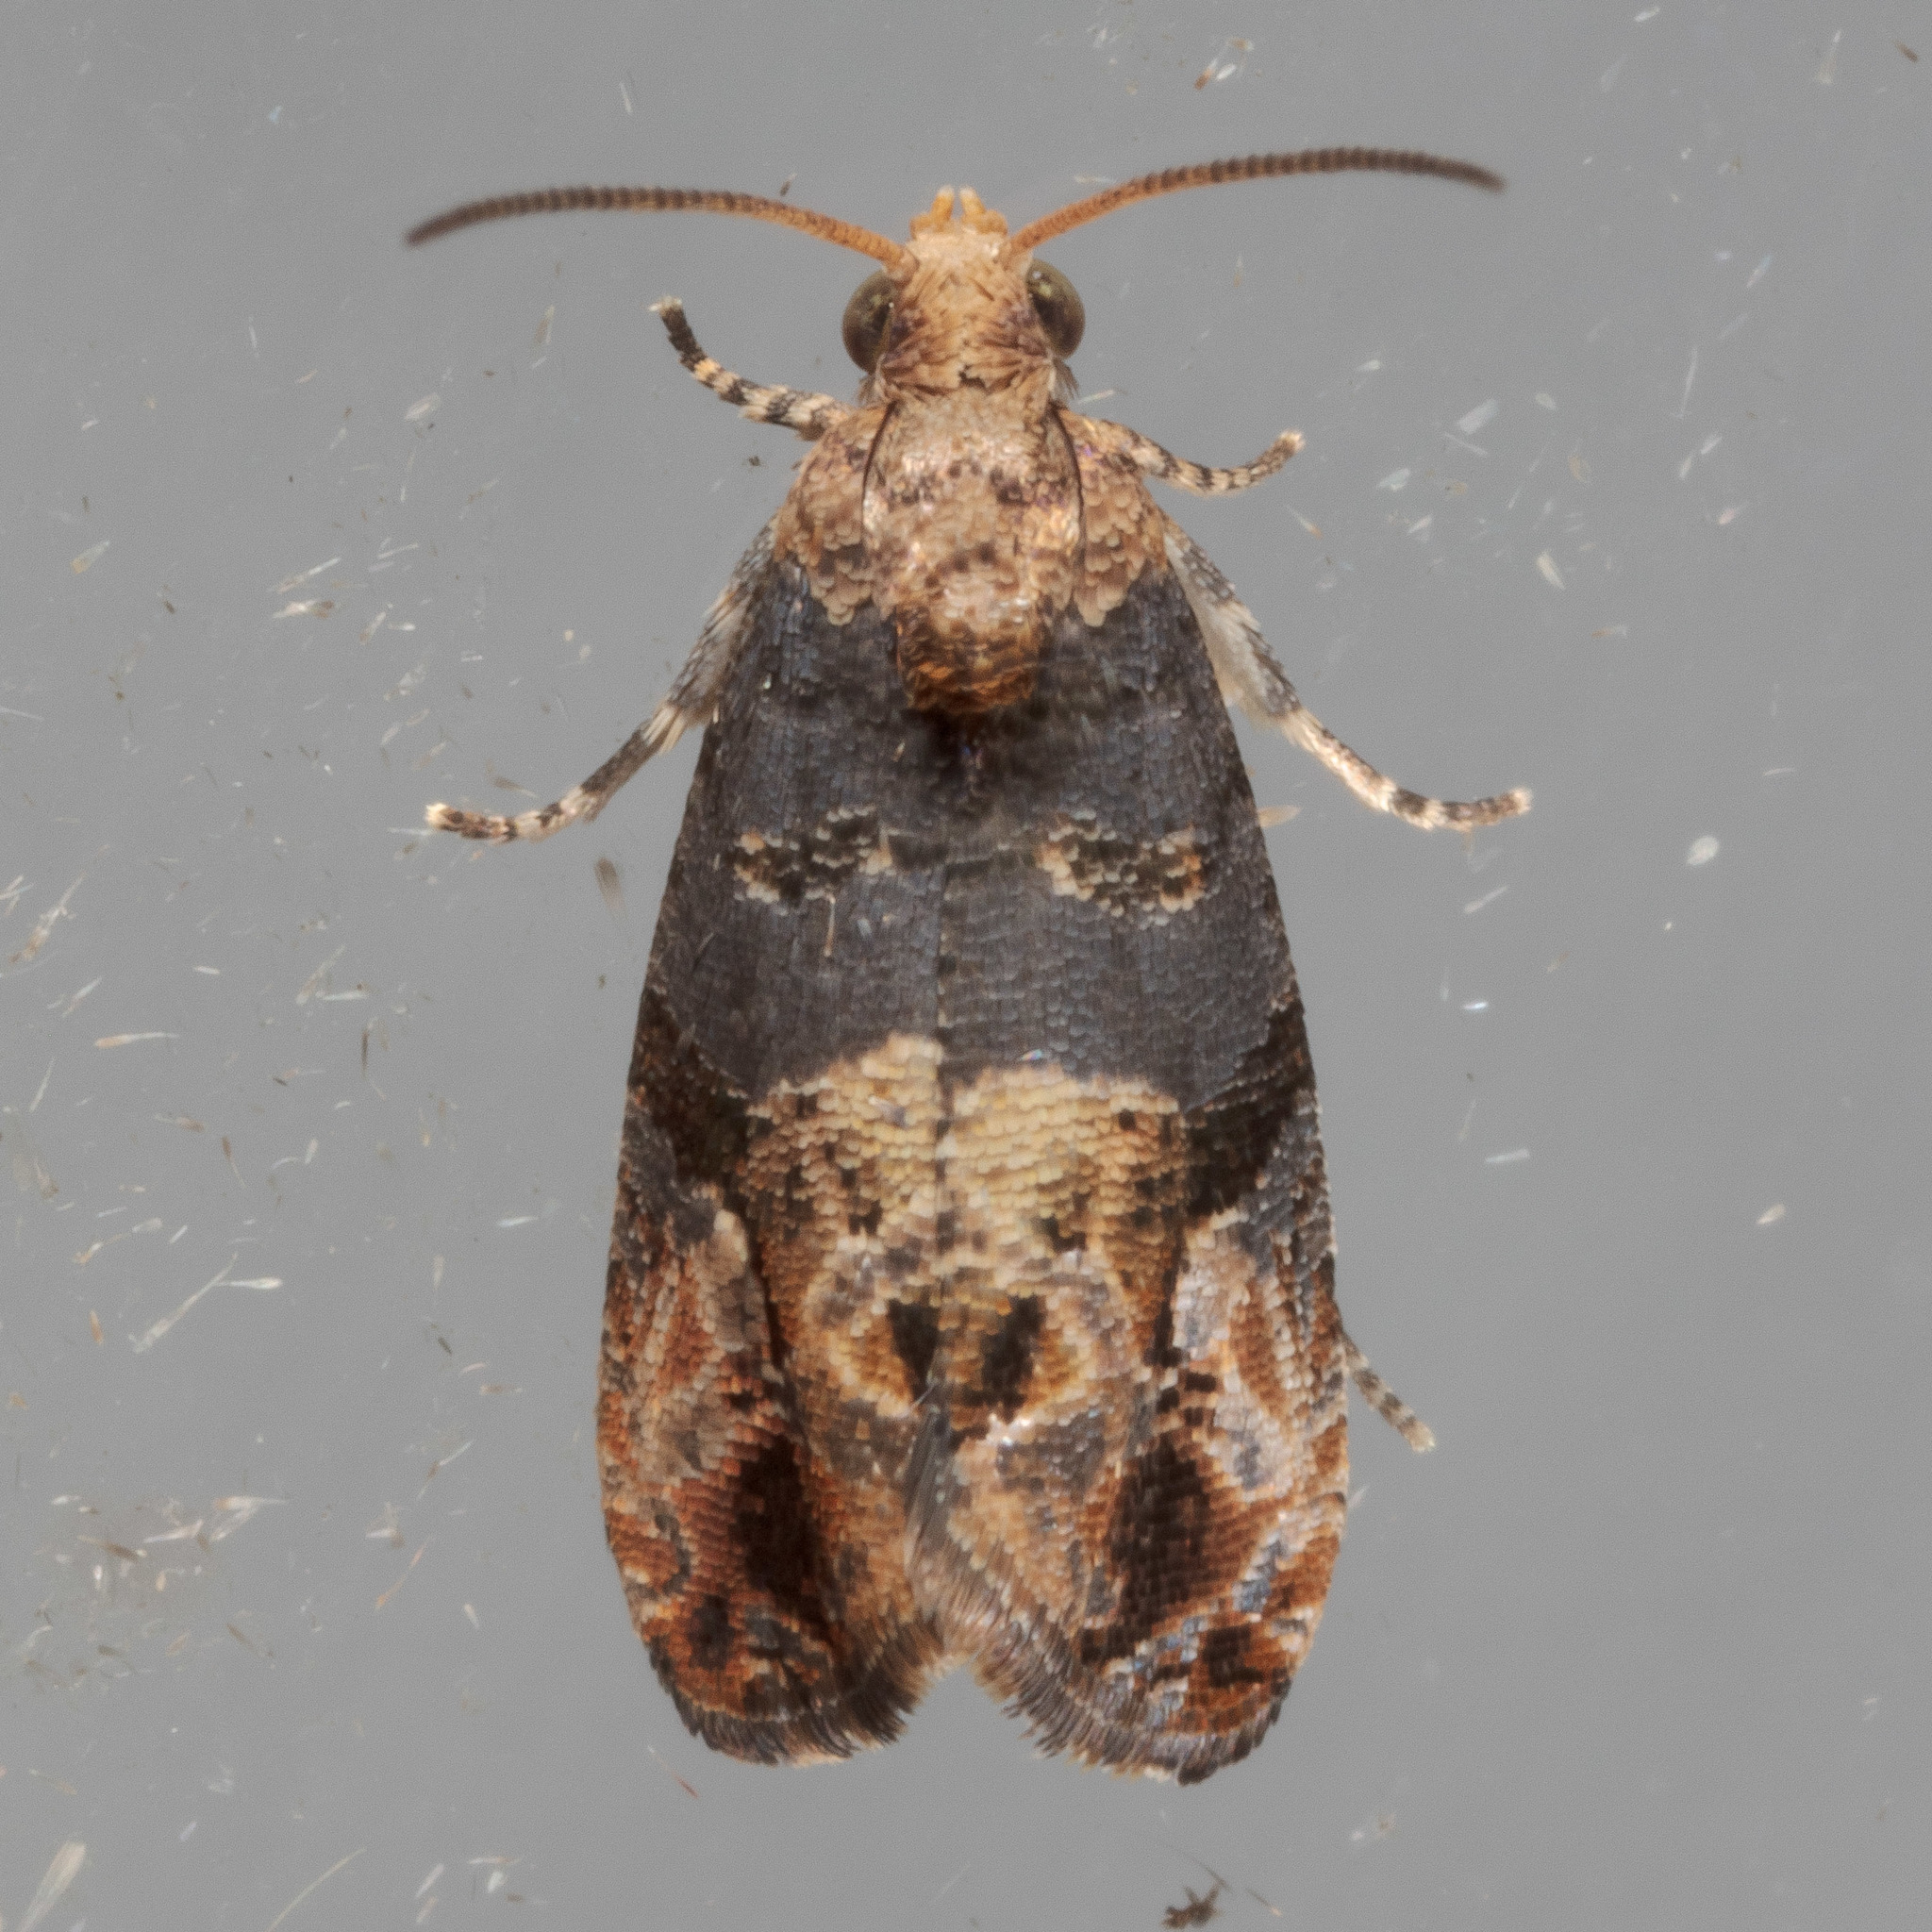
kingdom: Animalia
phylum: Arthropoda
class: Insecta
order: Lepidoptera
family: Tortricidae
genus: Paralobesia
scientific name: Paralobesia viteana
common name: Grape berry moth
